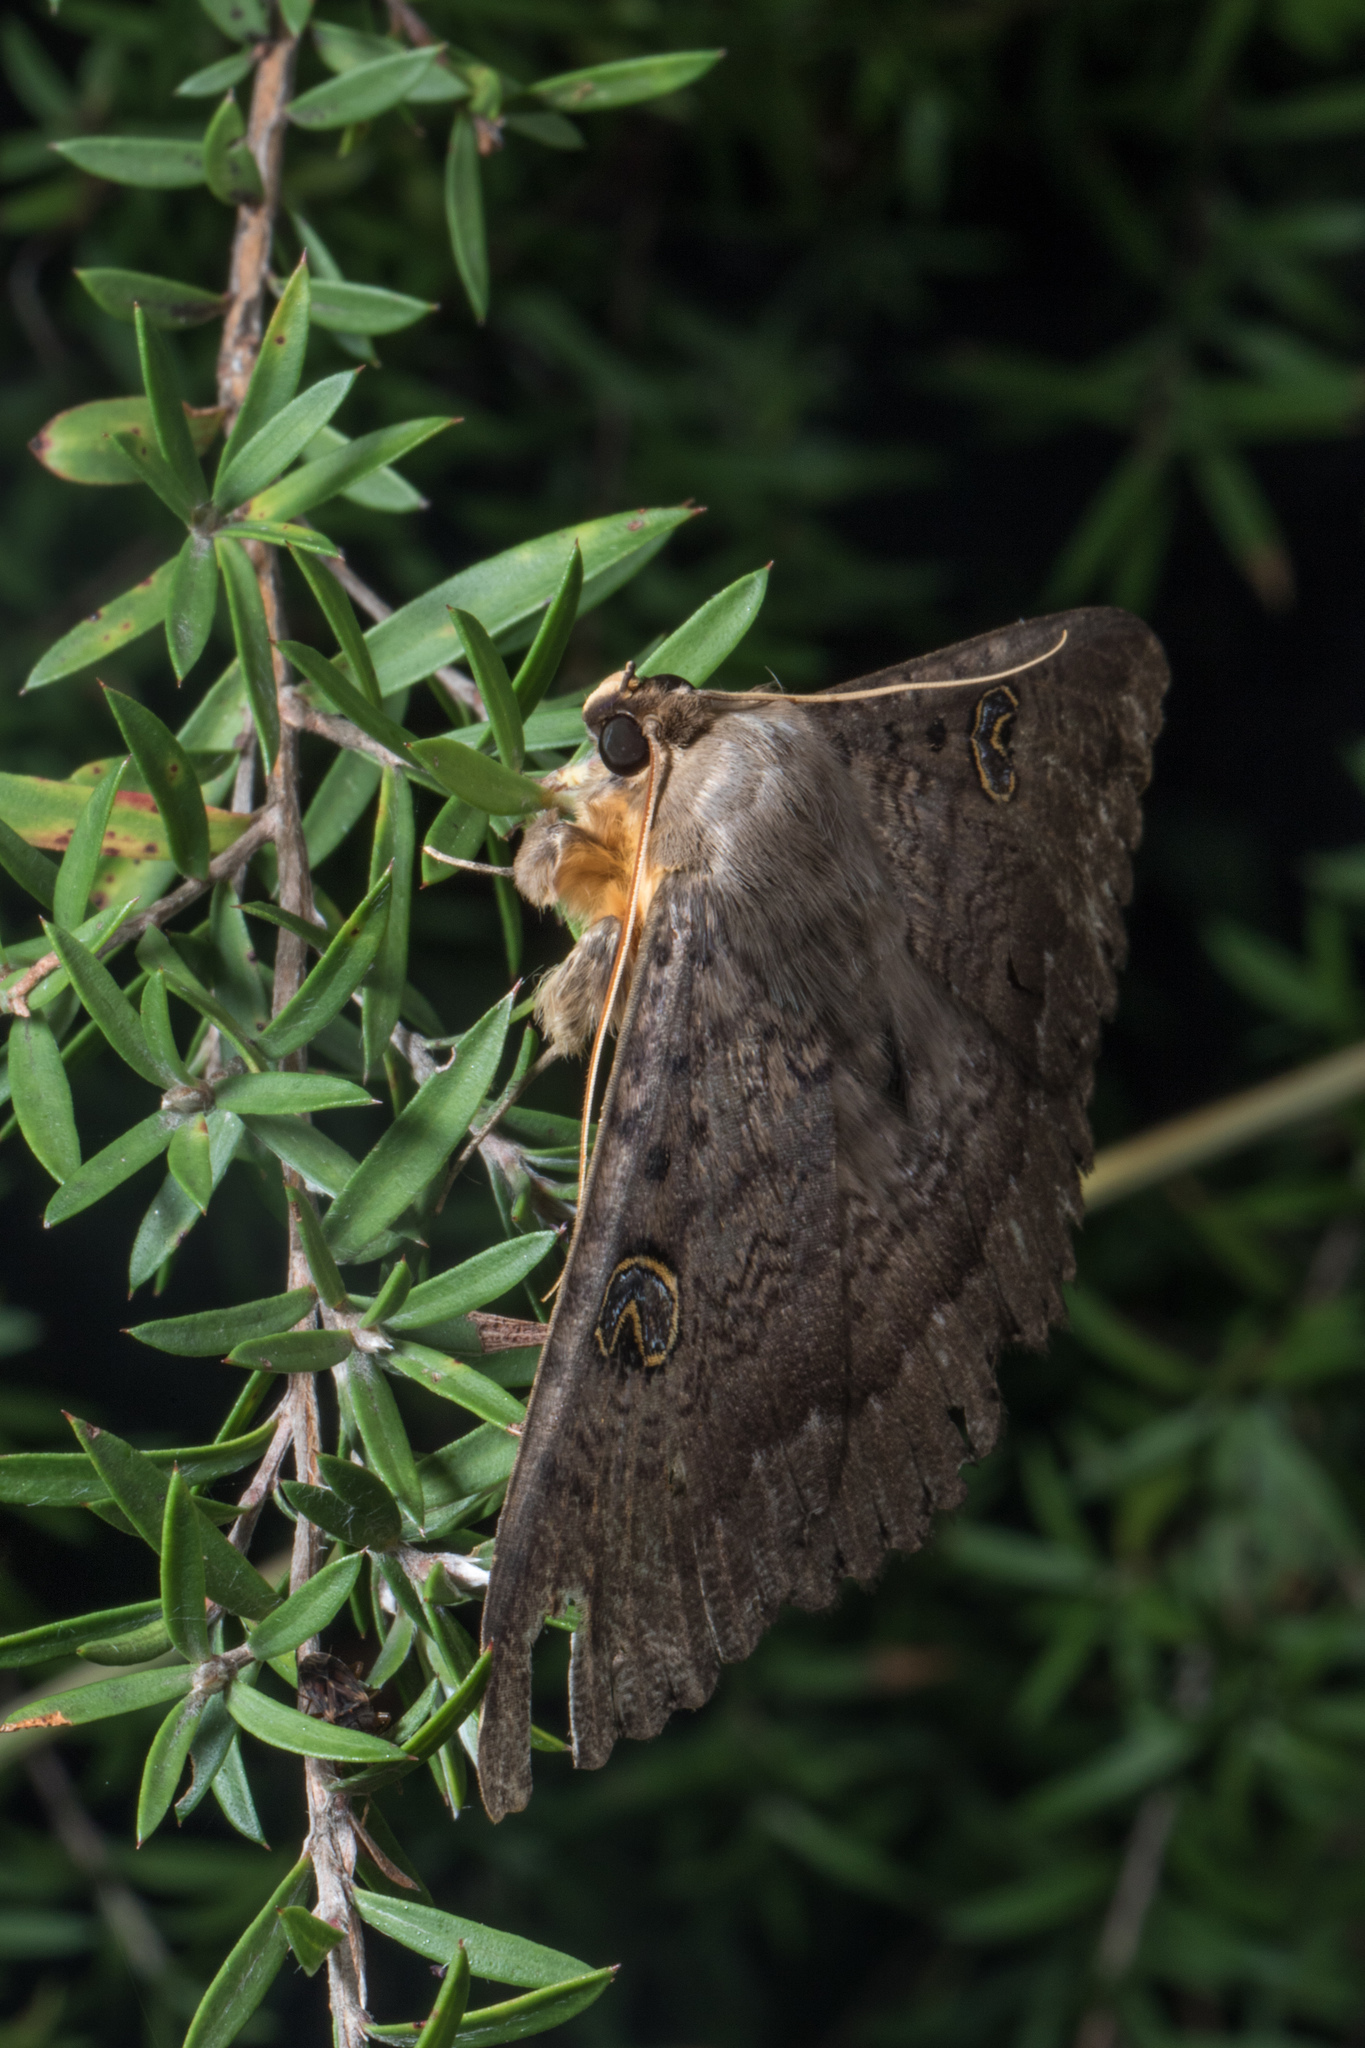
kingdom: Animalia
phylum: Arthropoda
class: Insecta
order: Lepidoptera
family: Erebidae
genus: Dasypodia
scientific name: Dasypodia cymatodes
